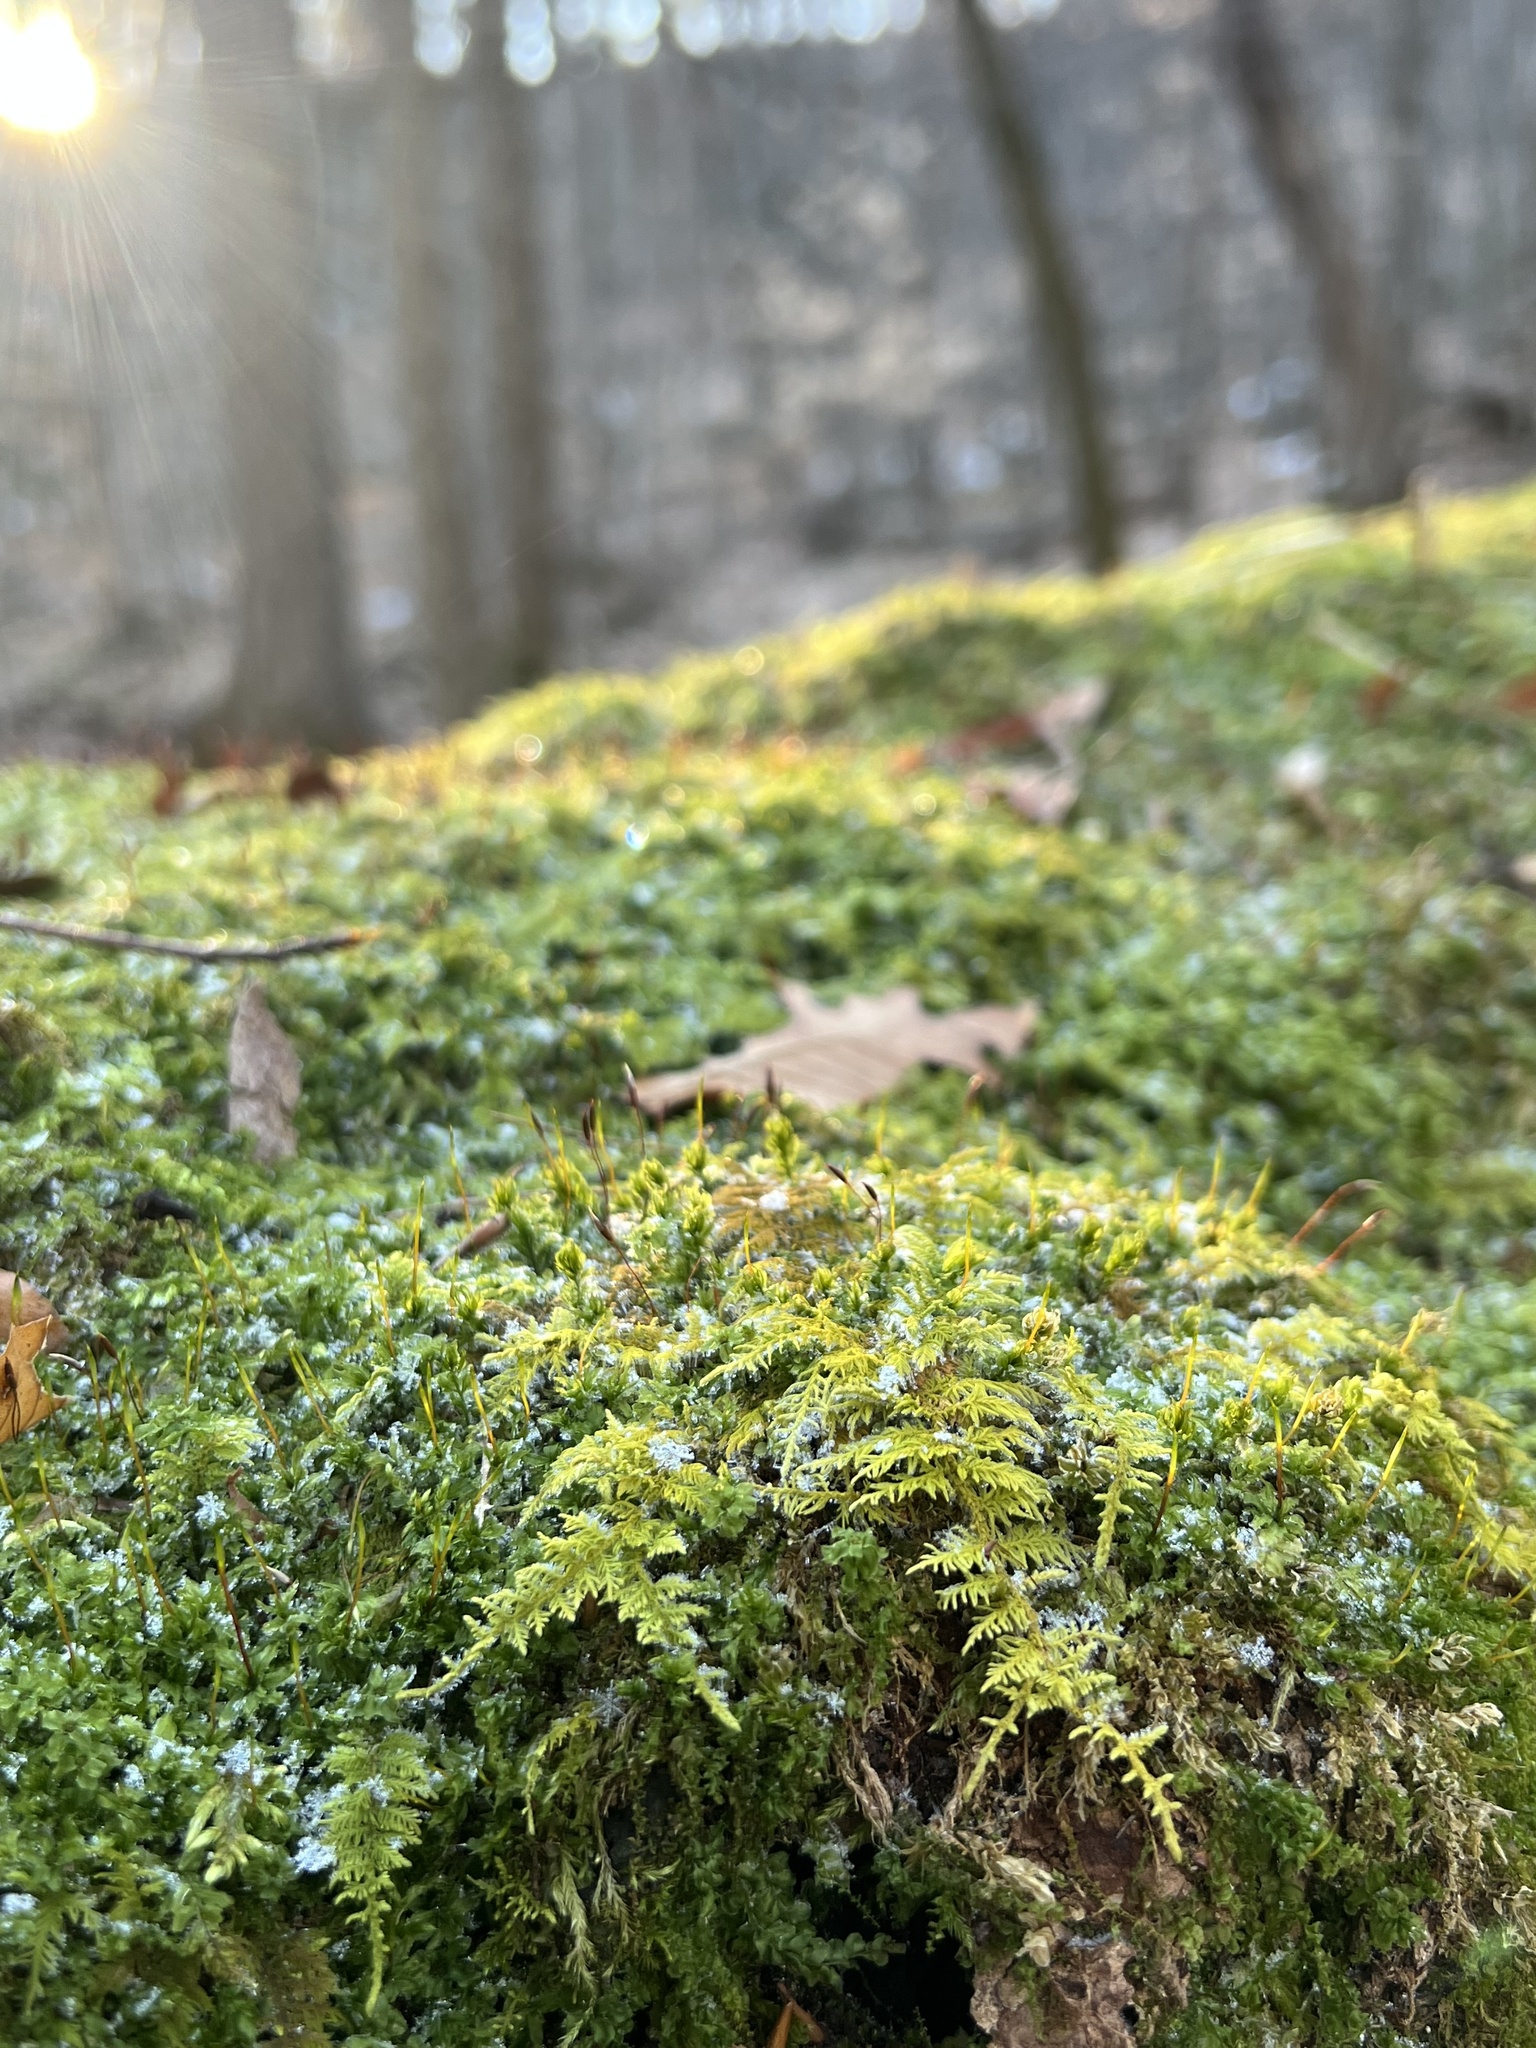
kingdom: Plantae
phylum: Bryophyta
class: Bryopsida
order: Hypnales
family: Thuidiaceae
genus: Thuidium
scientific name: Thuidium delicatulum
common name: Delicate fern moss
